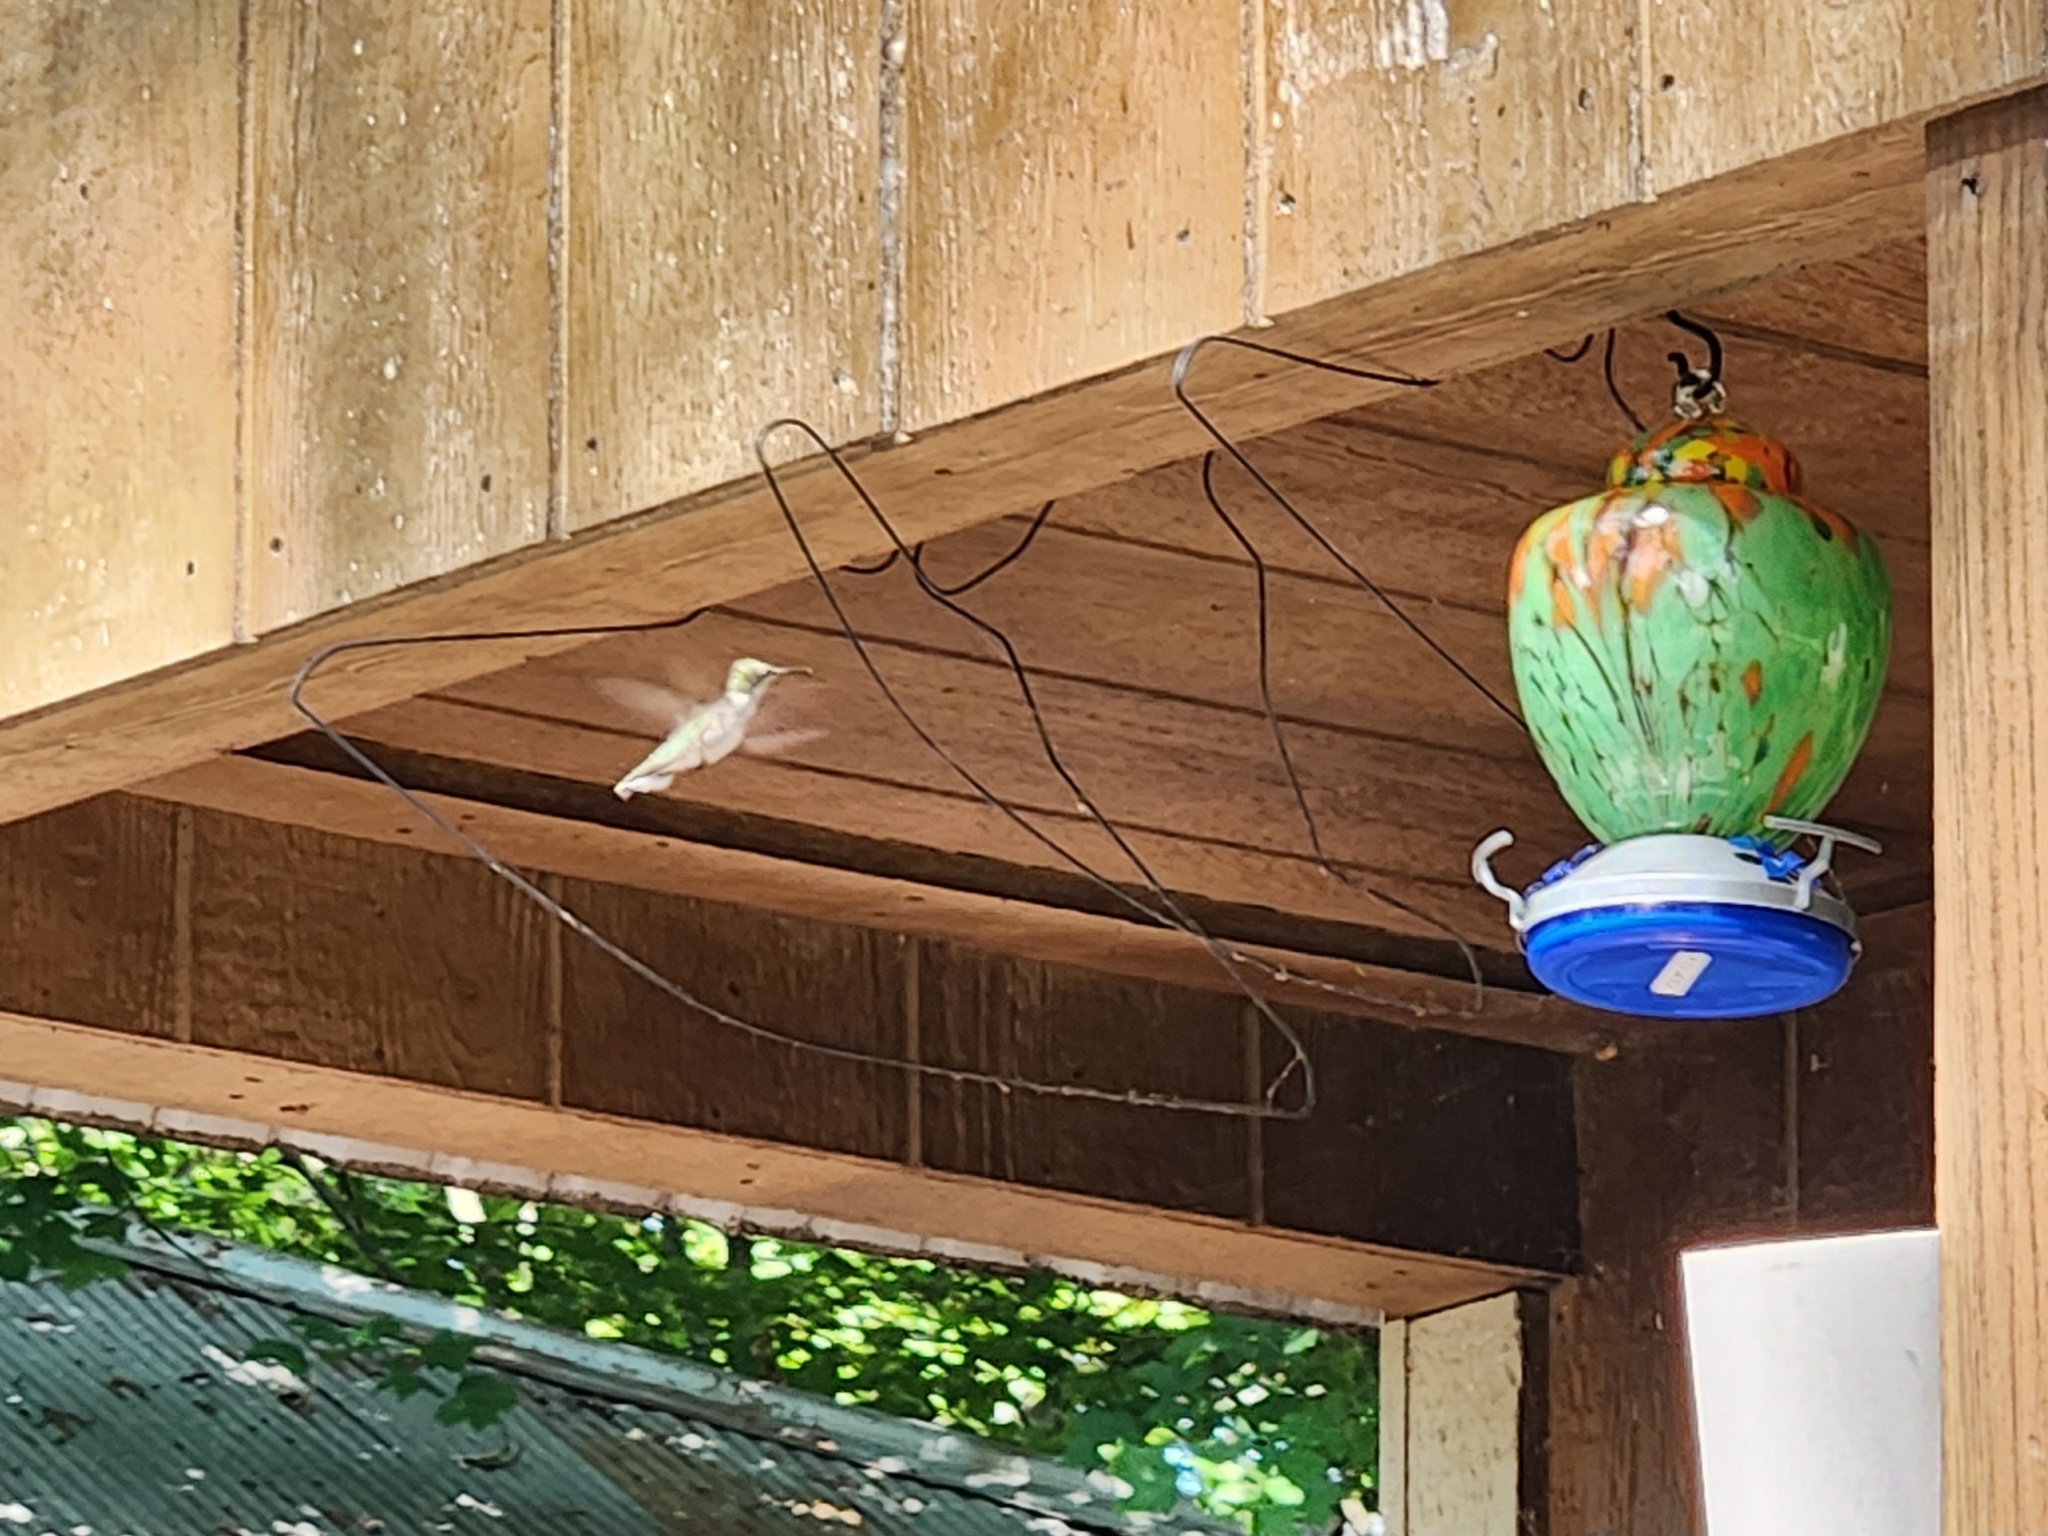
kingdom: Animalia
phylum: Chordata
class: Aves
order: Apodiformes
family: Trochilidae
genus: Archilochus
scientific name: Archilochus colubris
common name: Ruby-throated hummingbird
